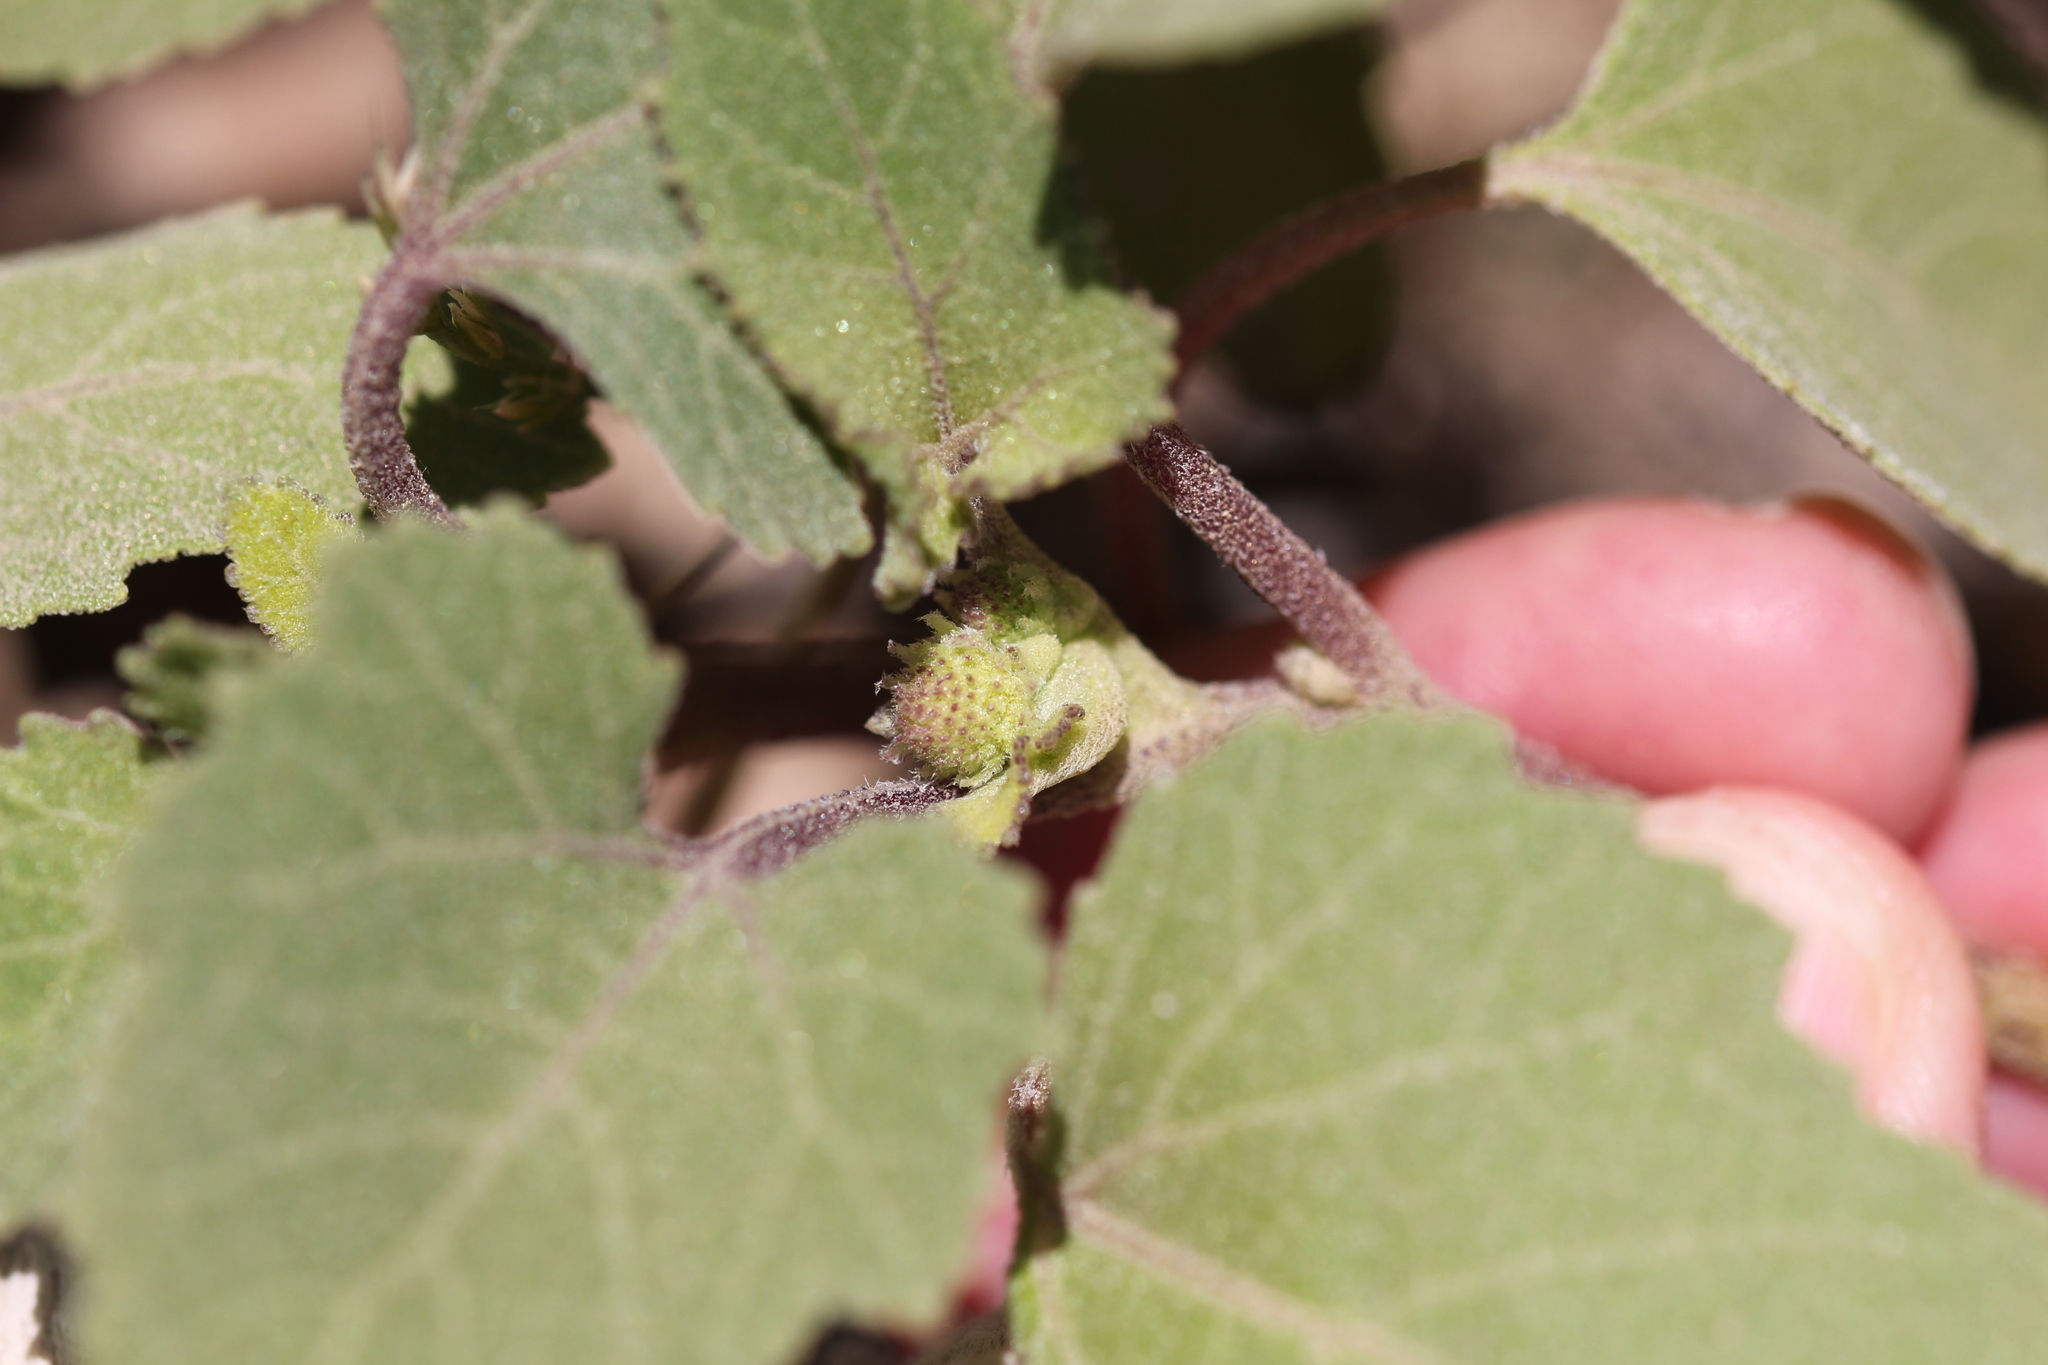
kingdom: Plantae
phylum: Tracheophyta
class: Magnoliopsida
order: Asterales
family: Asteraceae
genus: Xanthium
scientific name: Xanthium strumarium
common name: Rough cocklebur
